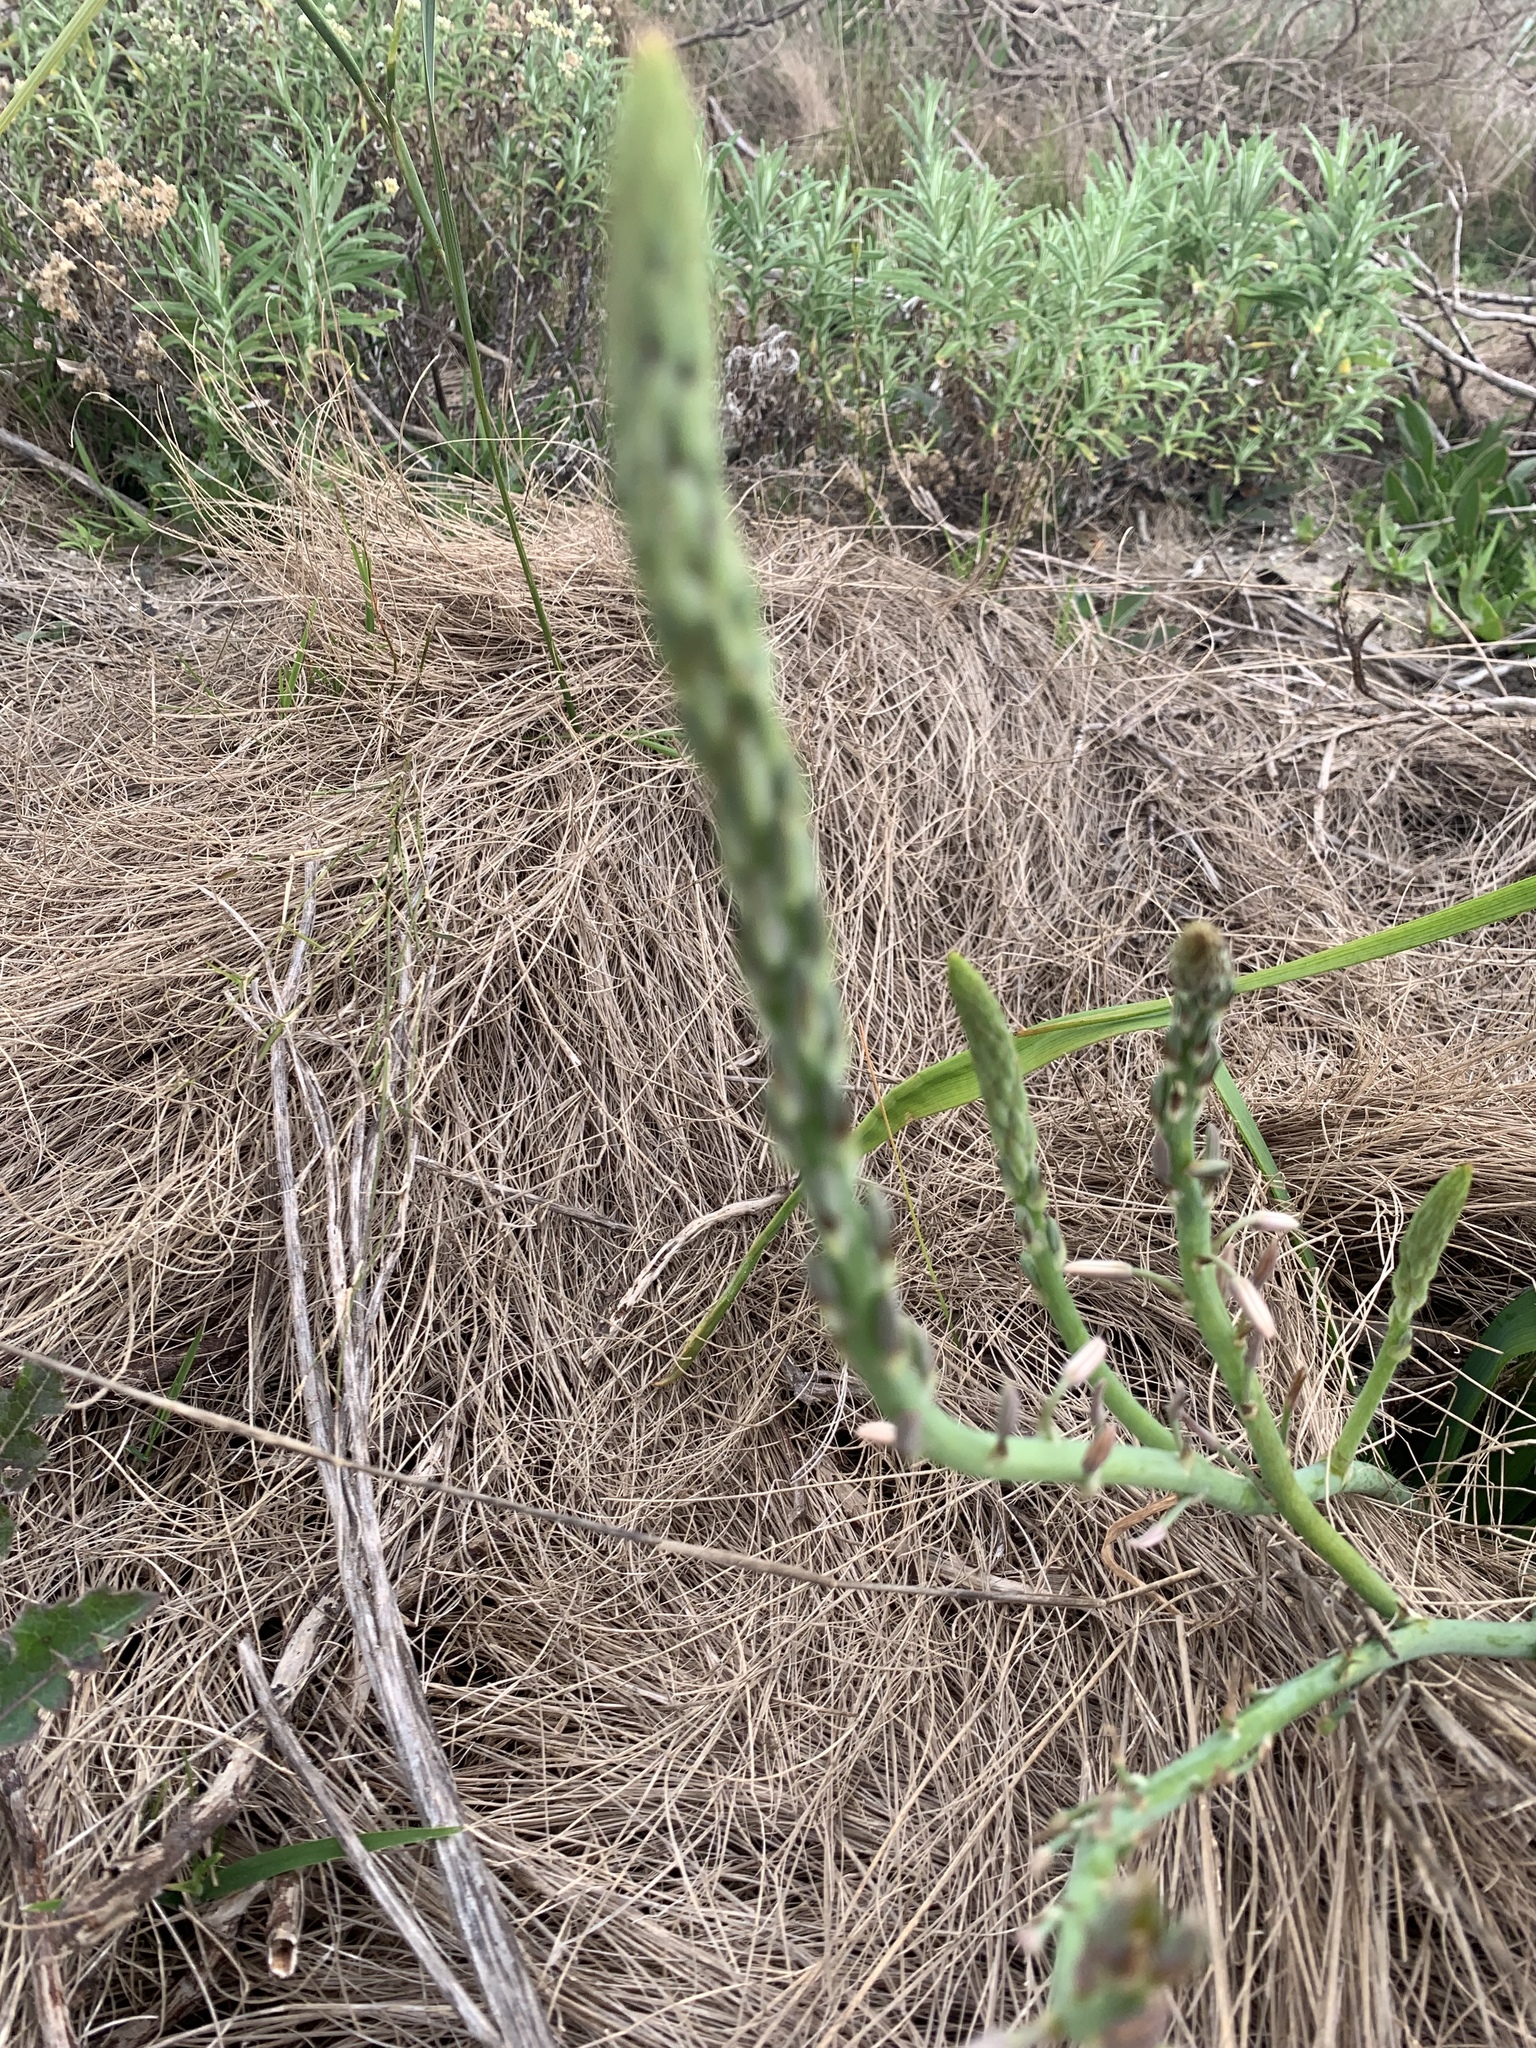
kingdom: Plantae
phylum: Tracheophyta
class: Liliopsida
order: Asparagales
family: Asphodelaceae
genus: Trachyandra
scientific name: Trachyandra ciliata
